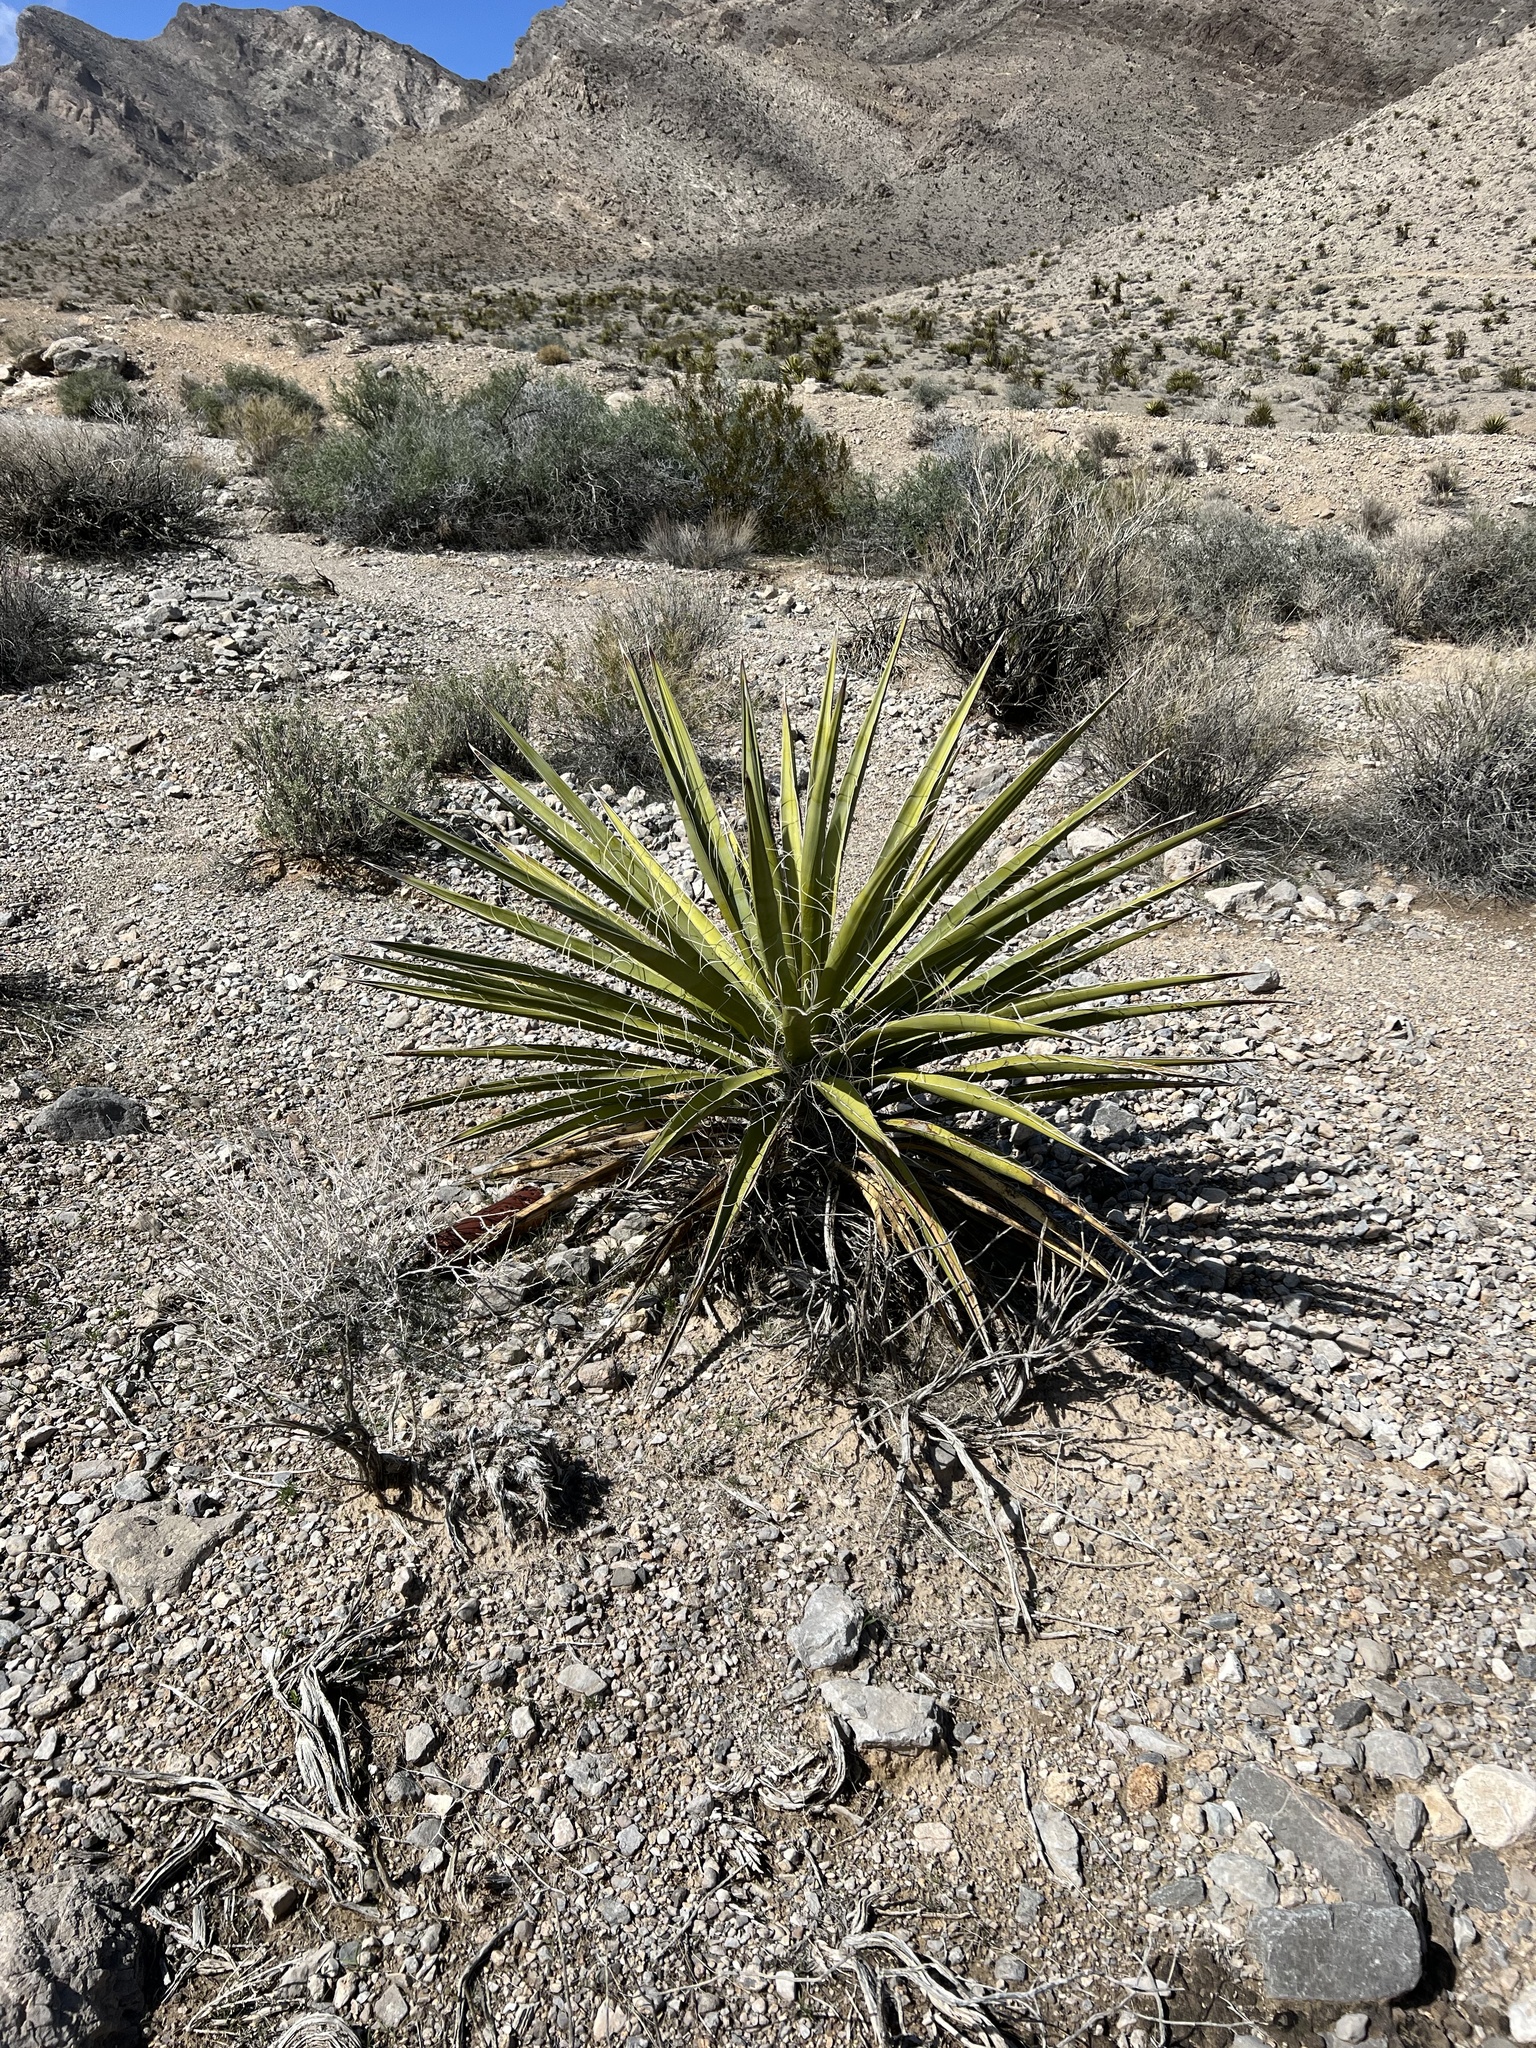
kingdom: Plantae
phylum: Tracheophyta
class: Liliopsida
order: Asparagales
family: Asparagaceae
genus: Yucca
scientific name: Yucca schidigera
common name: Mojave yucca
